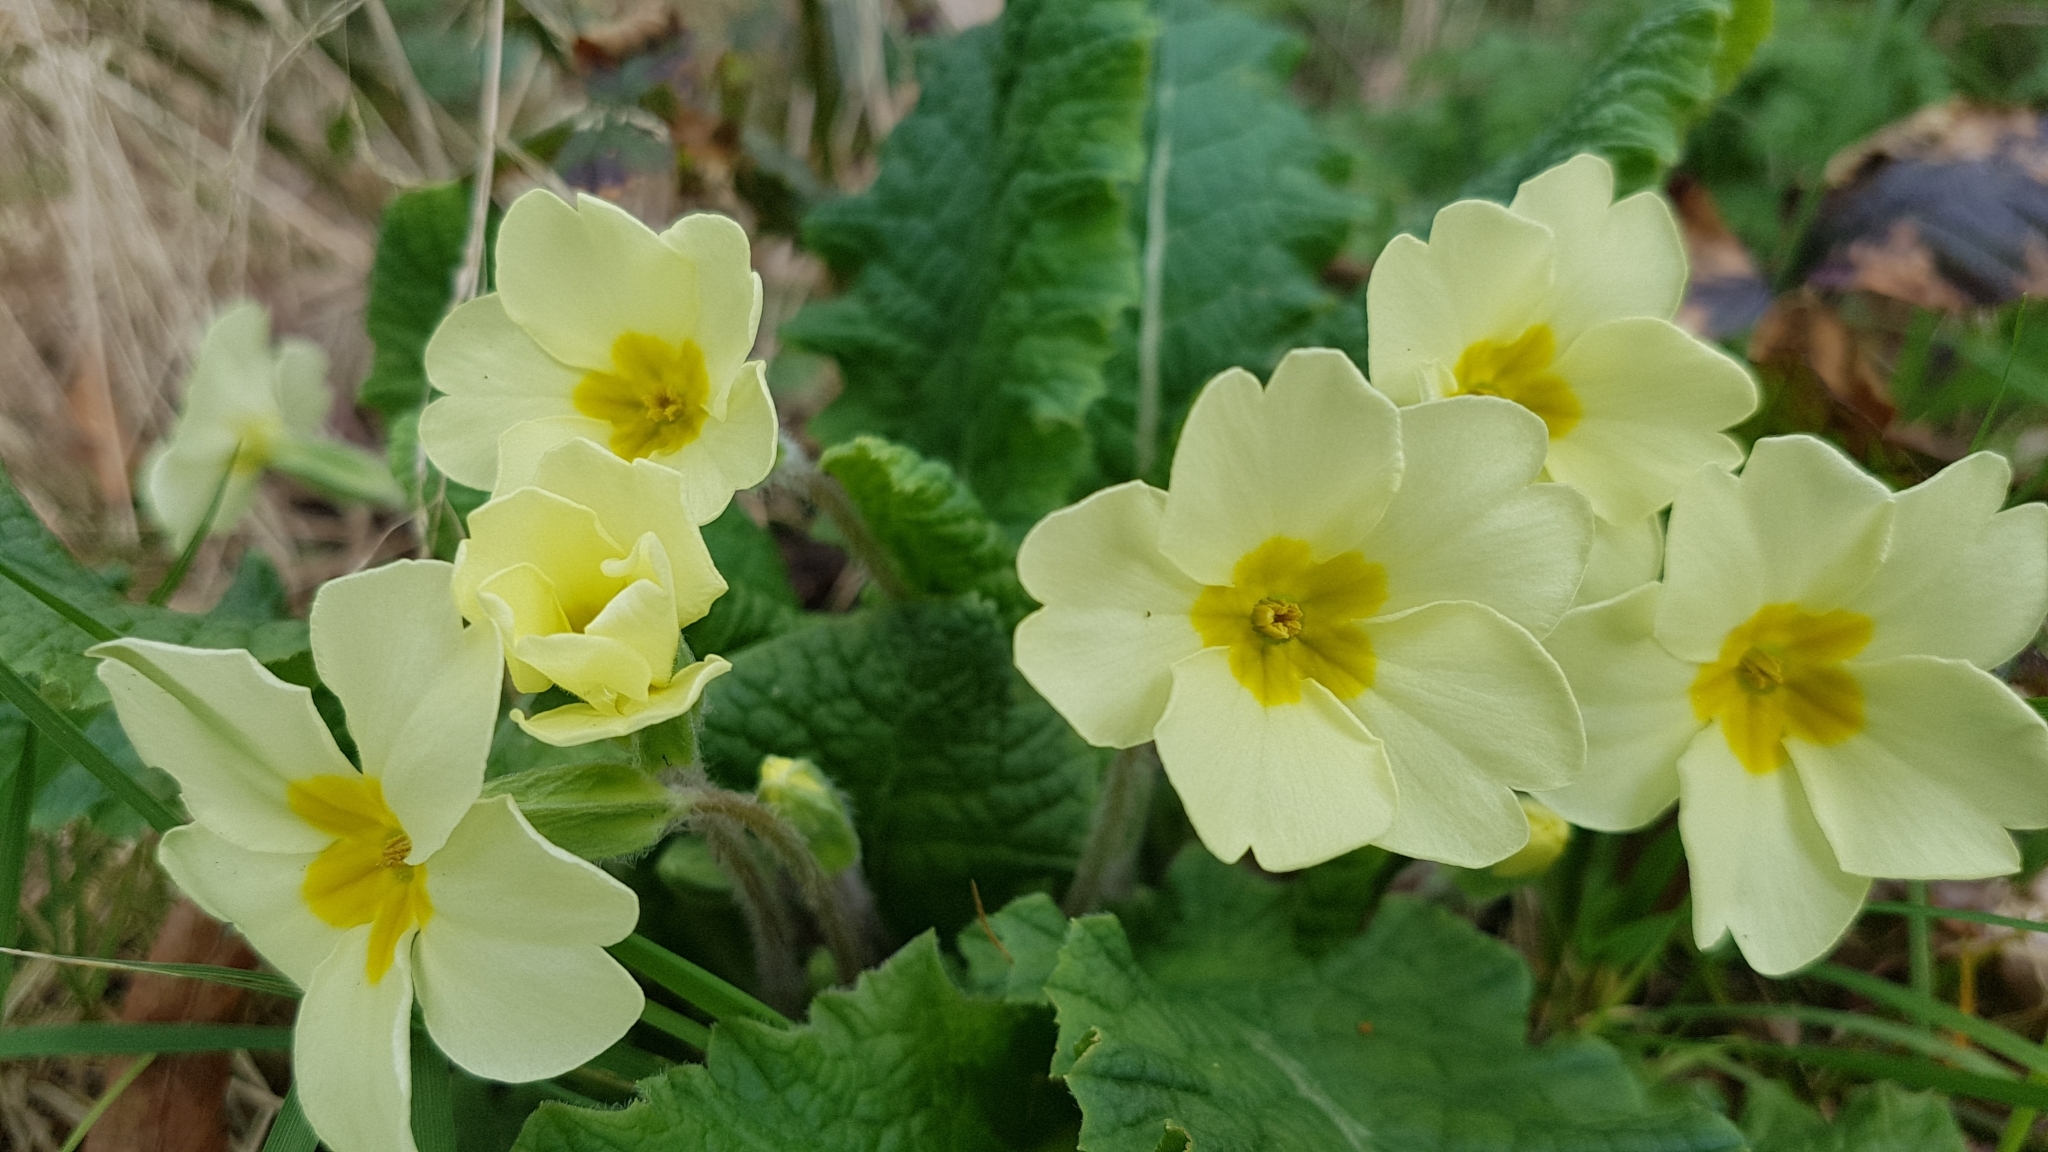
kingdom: Plantae
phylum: Tracheophyta
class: Magnoliopsida
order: Ericales
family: Primulaceae
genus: Primula
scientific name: Primula vulgaris
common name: Primrose
